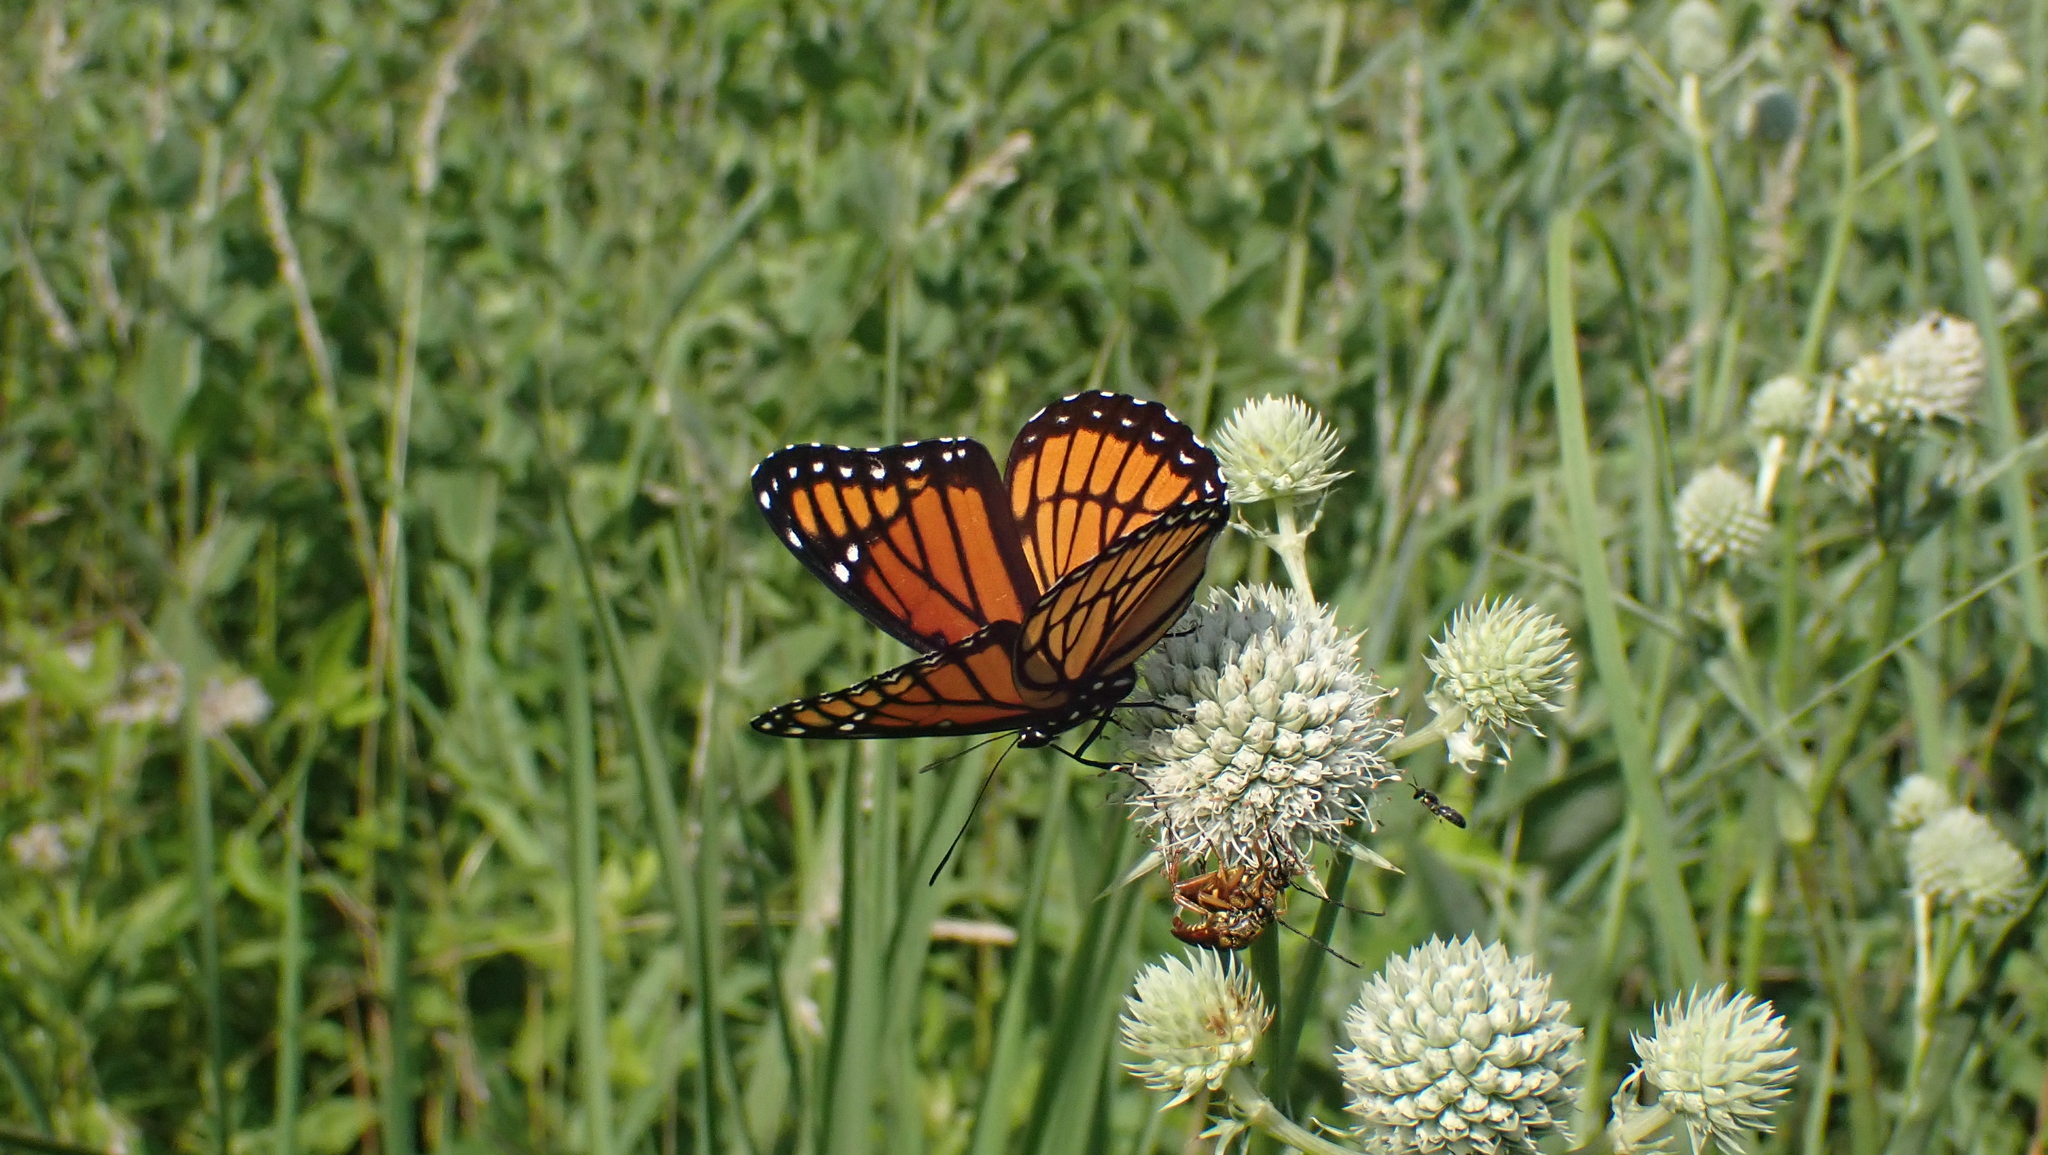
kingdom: Animalia
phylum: Arthropoda
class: Insecta
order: Lepidoptera
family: Nymphalidae
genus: Limenitis
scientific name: Limenitis archippus
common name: Viceroy
